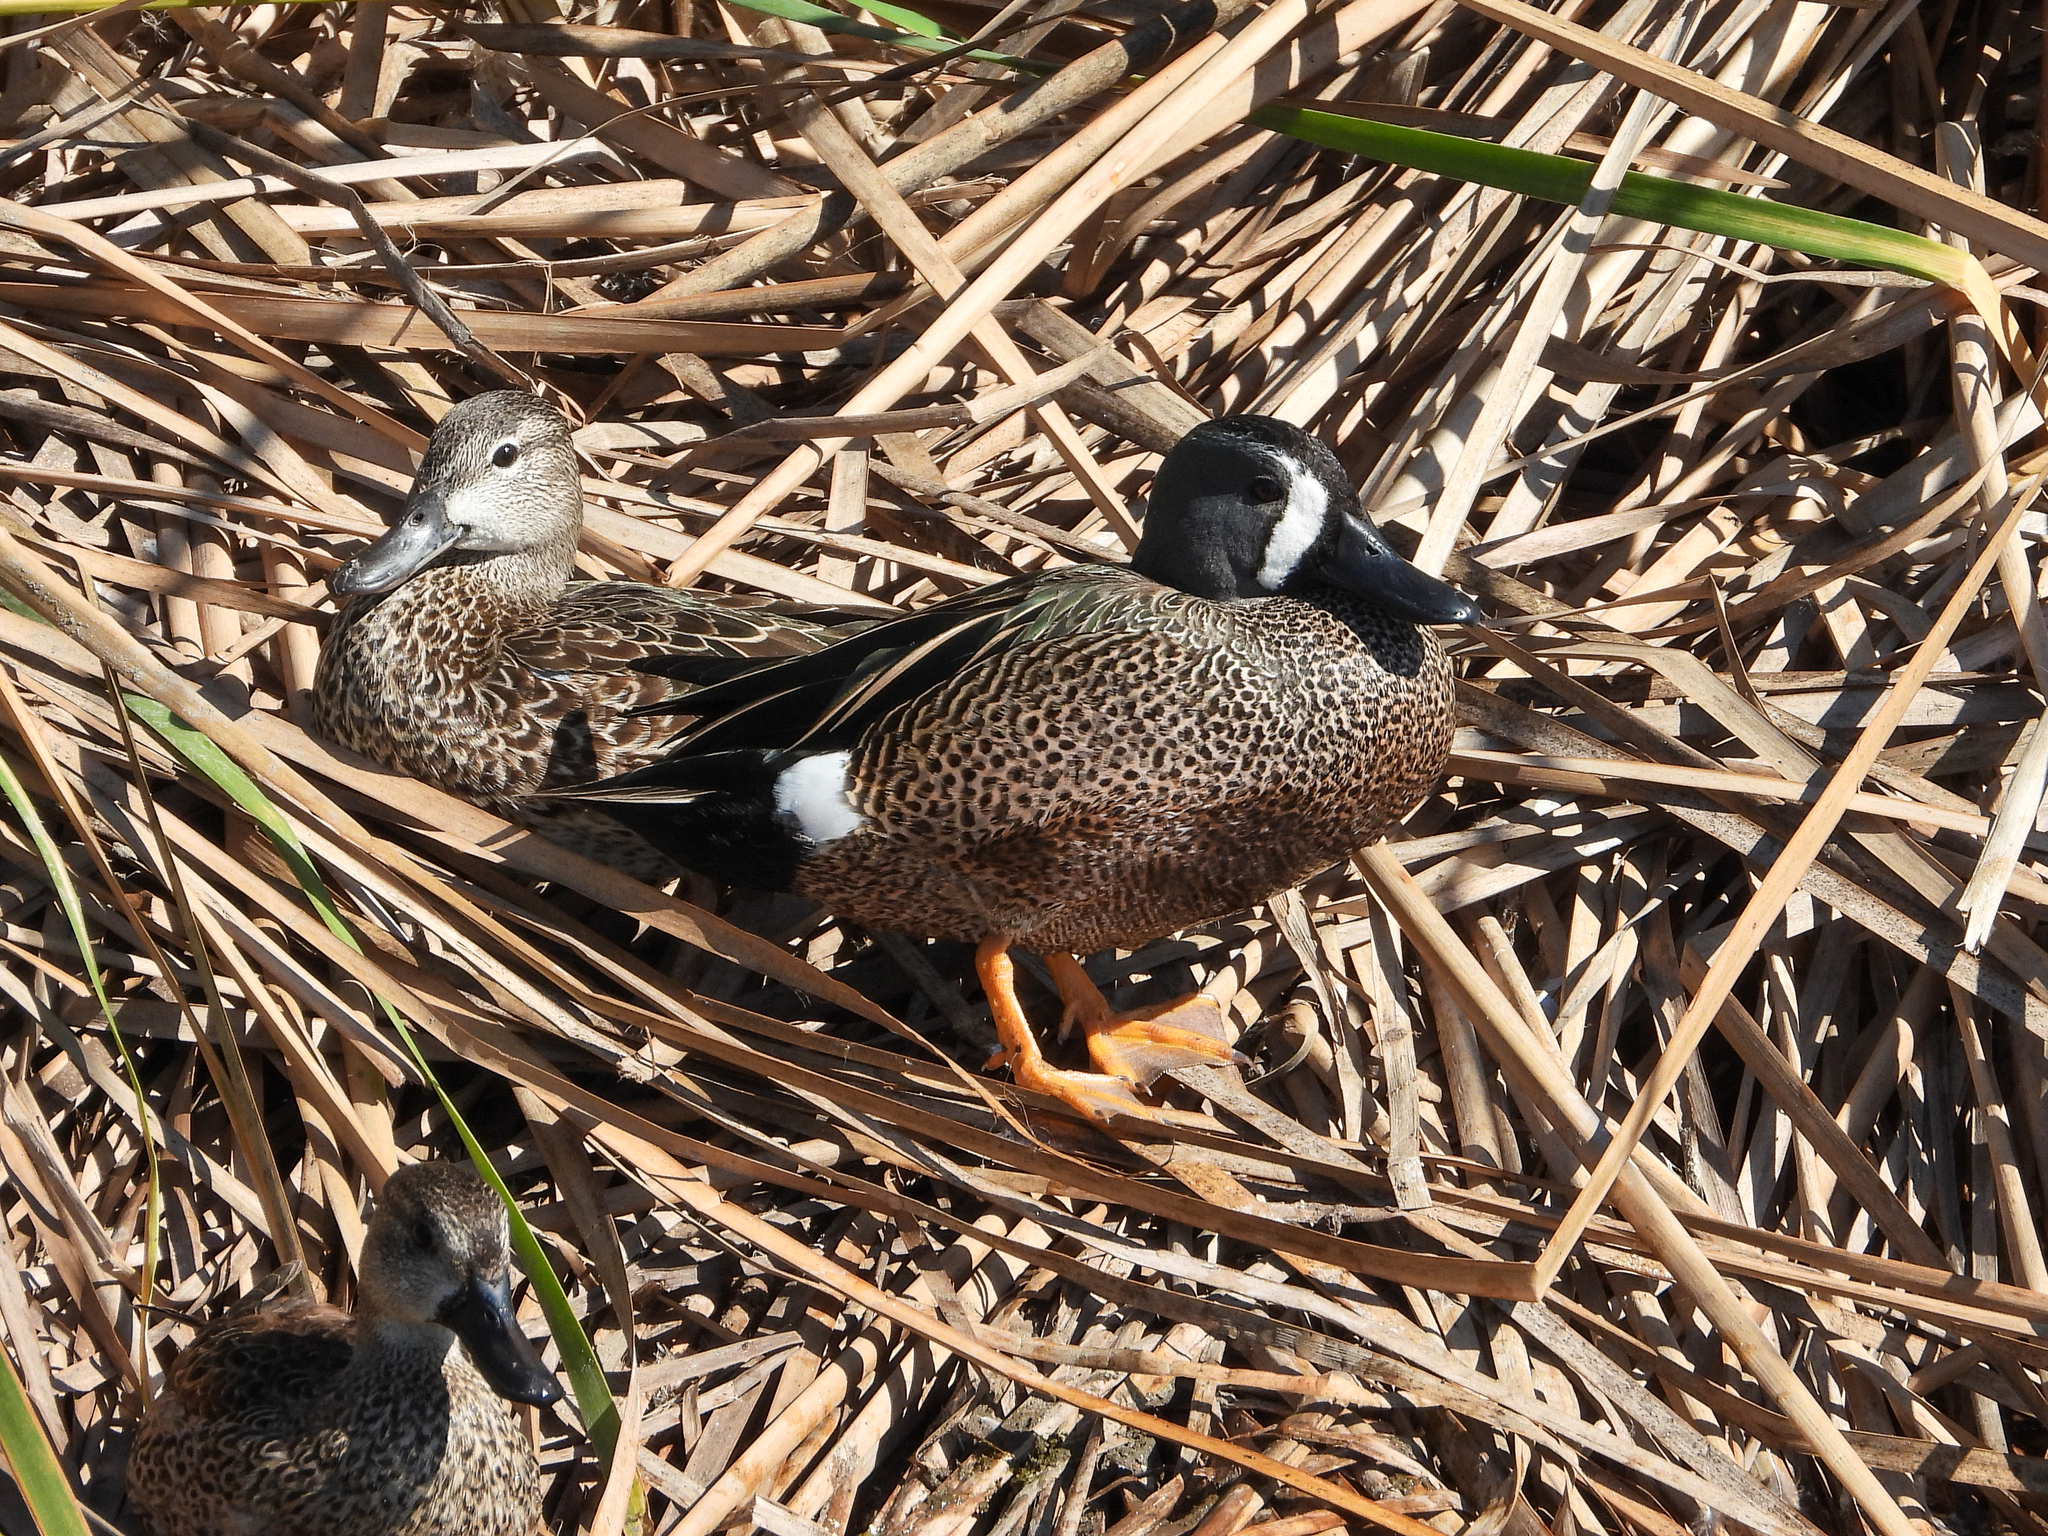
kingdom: Animalia
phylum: Chordata
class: Aves
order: Anseriformes
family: Anatidae
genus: Spatula
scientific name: Spatula discors
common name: Blue-winged teal
